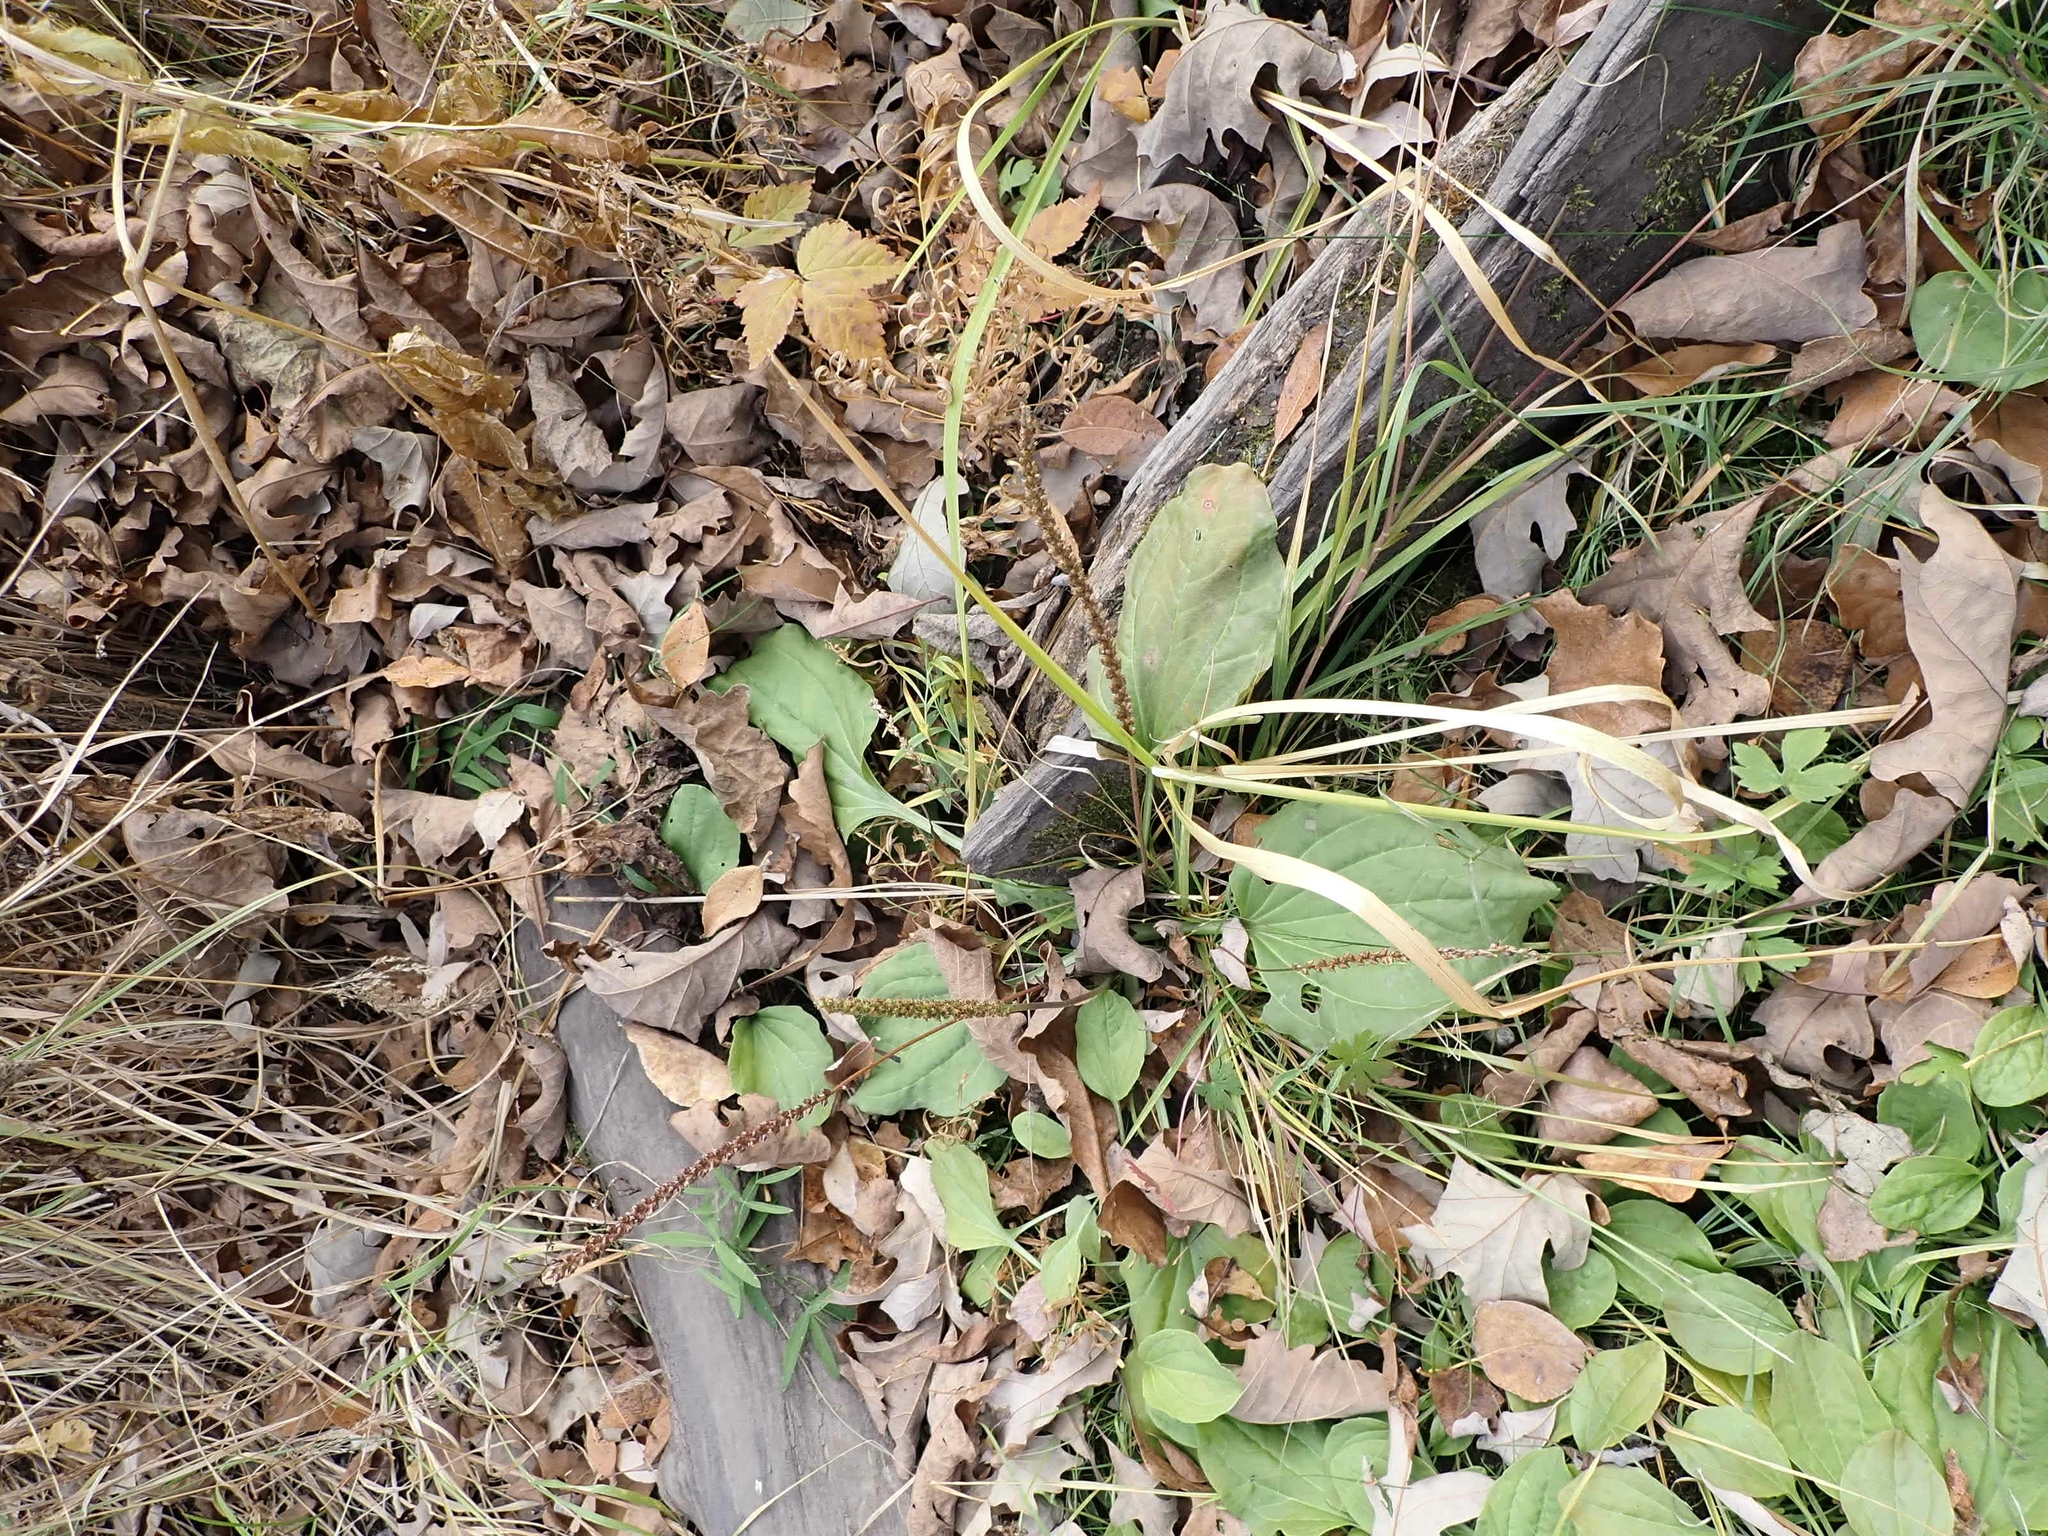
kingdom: Plantae
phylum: Tracheophyta
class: Magnoliopsida
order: Lamiales
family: Plantaginaceae
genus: Plantago
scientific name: Plantago major
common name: Common plantain
